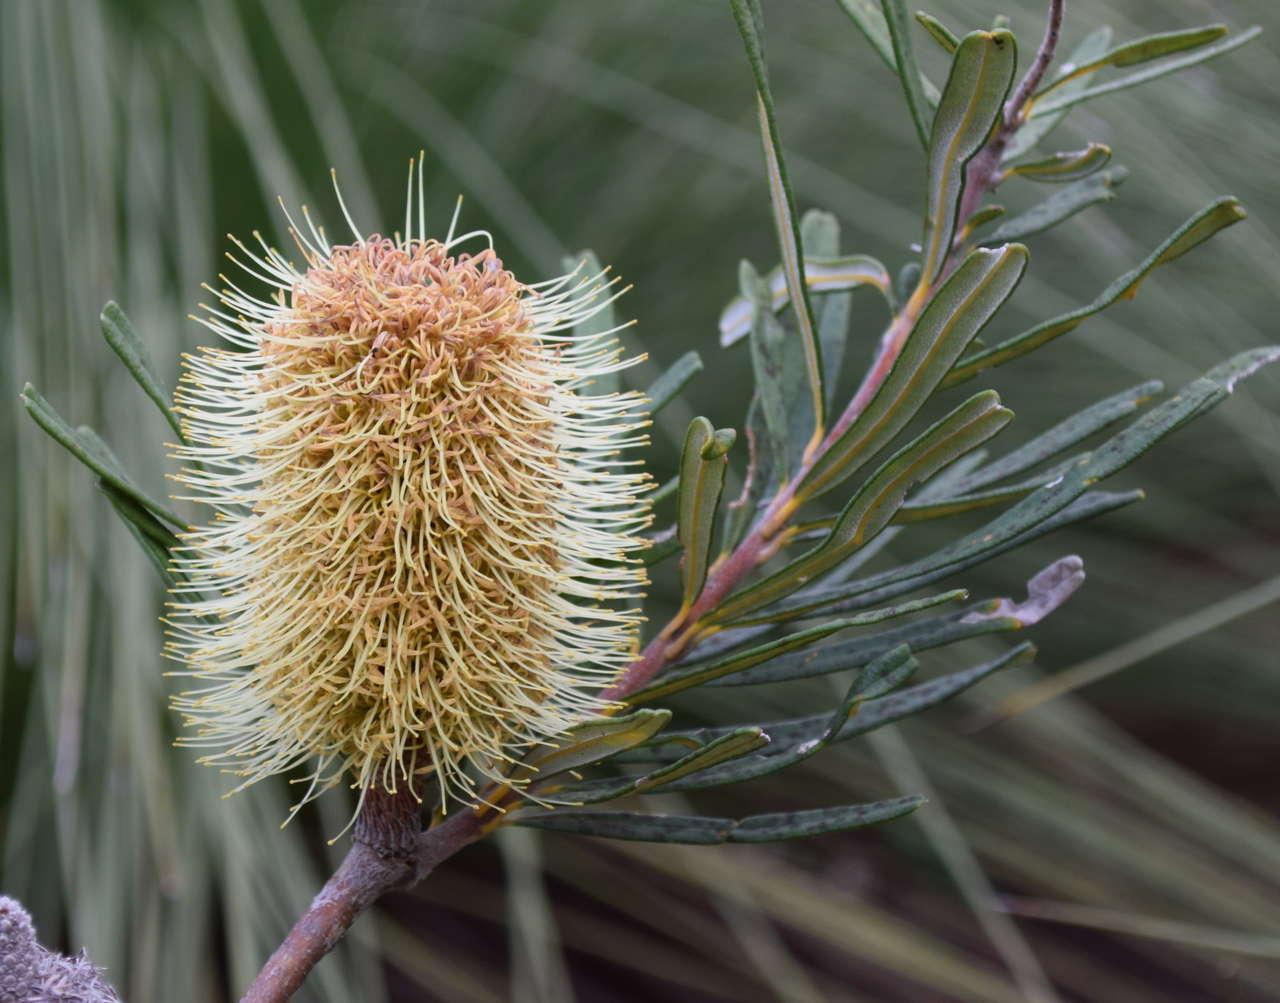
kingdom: Plantae
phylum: Tracheophyta
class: Magnoliopsida
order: Proteales
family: Proteaceae
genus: Banksia
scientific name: Banksia marginata
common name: Silver banksia
